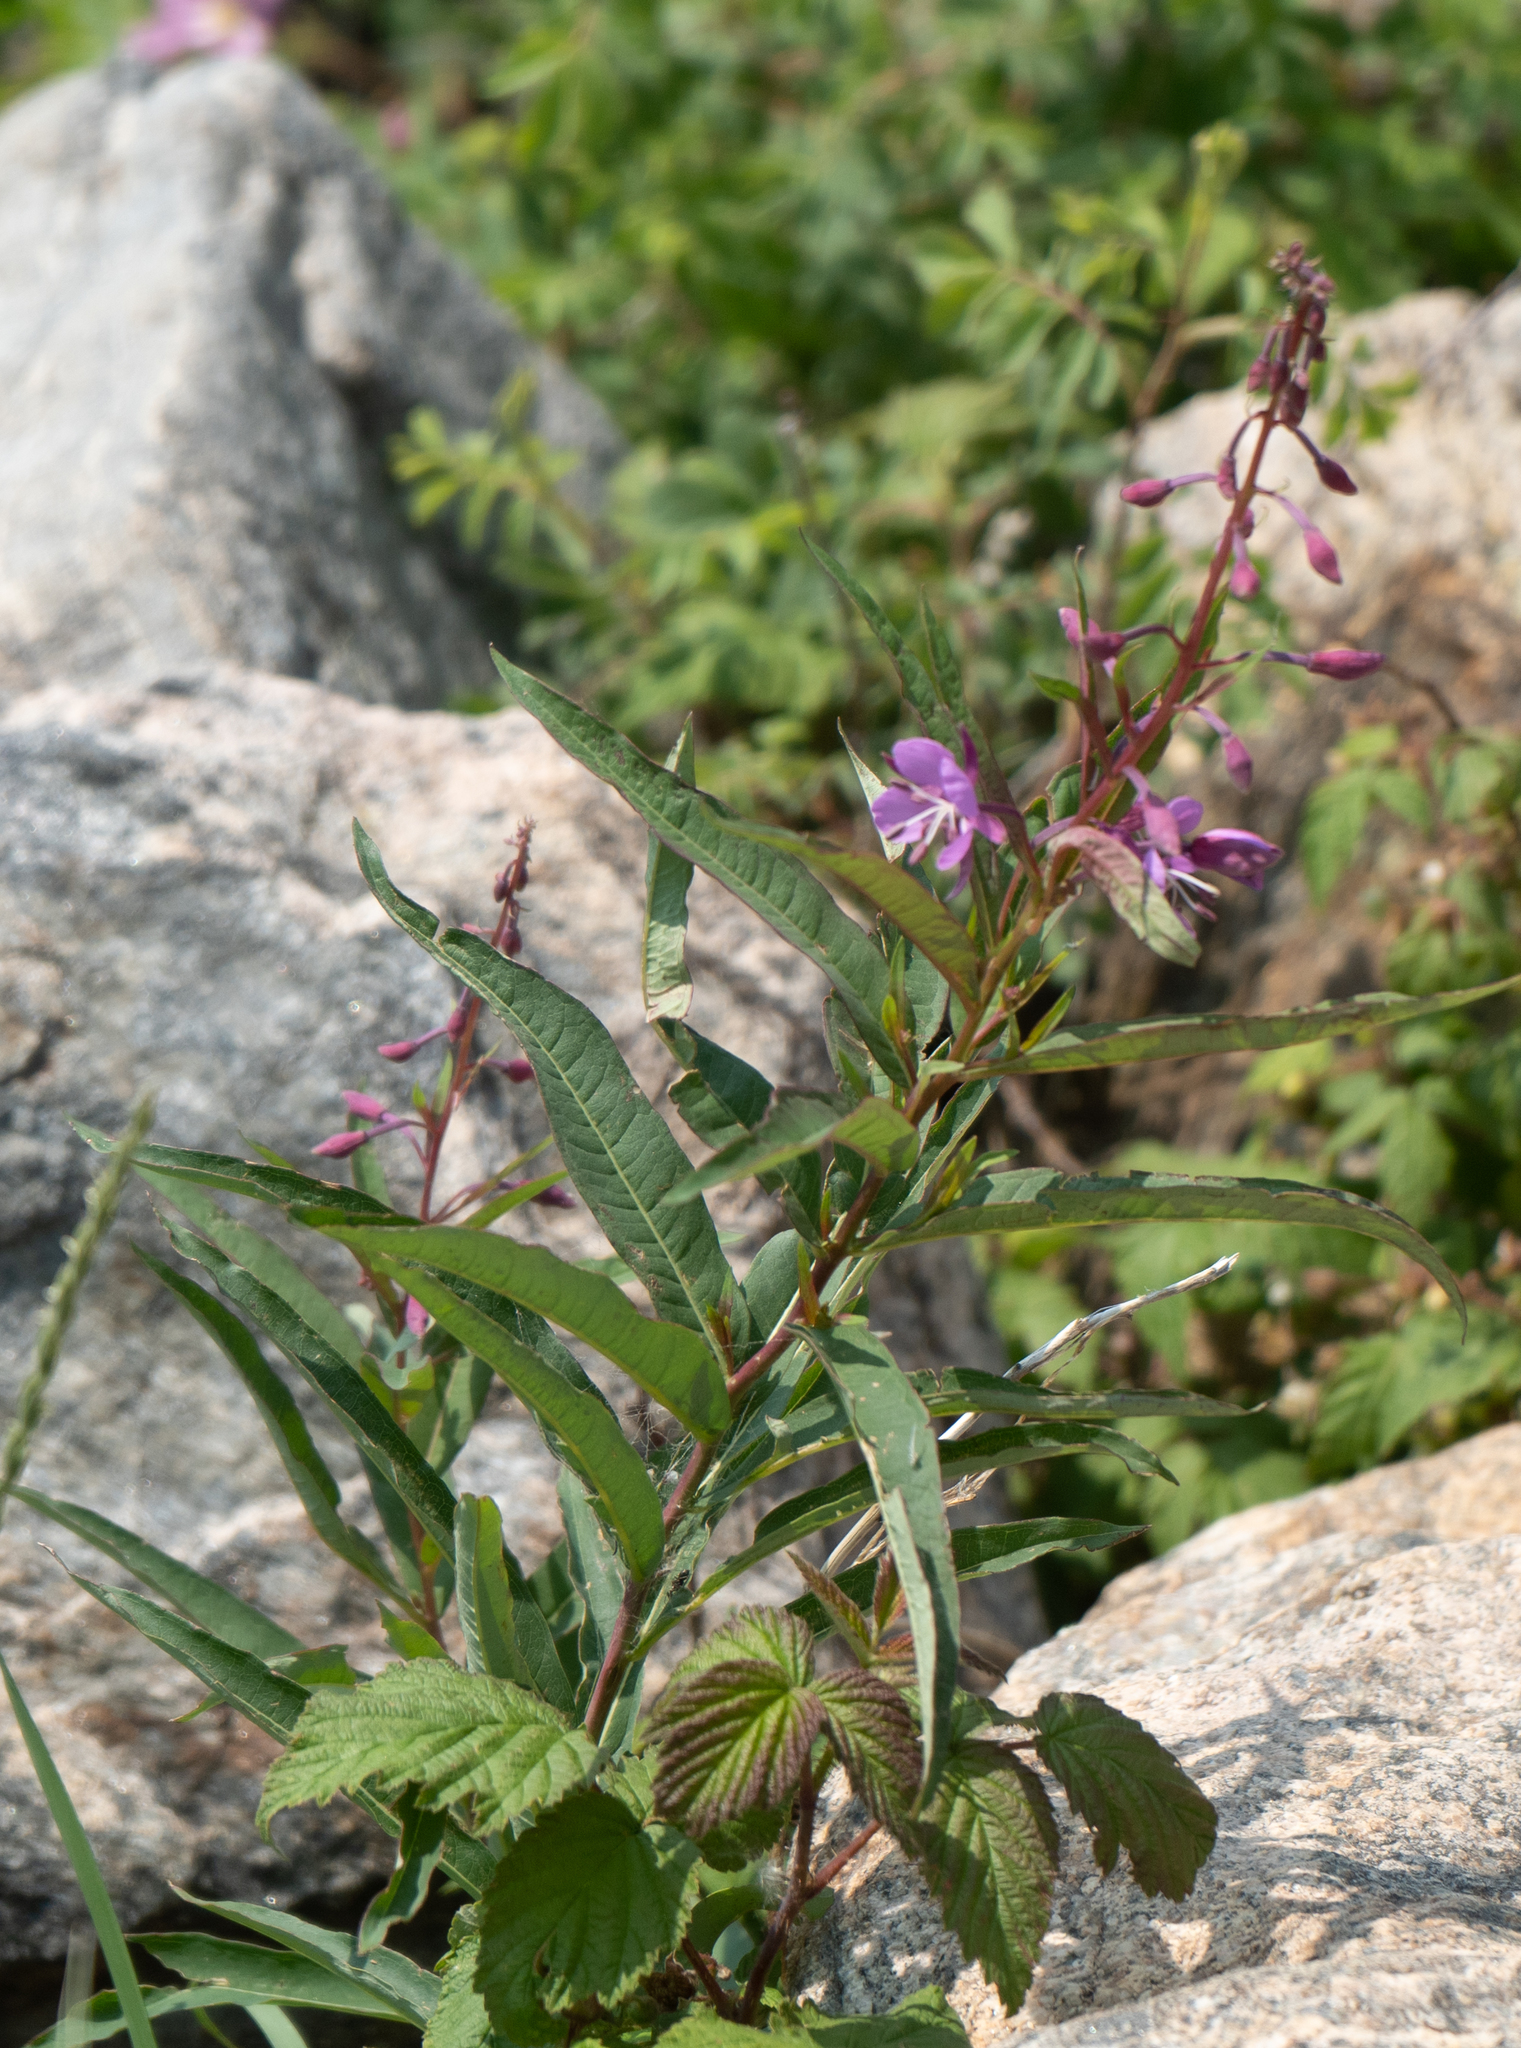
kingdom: Plantae
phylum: Tracheophyta
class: Magnoliopsida
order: Myrtales
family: Onagraceae
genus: Chamaenerion
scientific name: Chamaenerion angustifolium
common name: Fireweed
